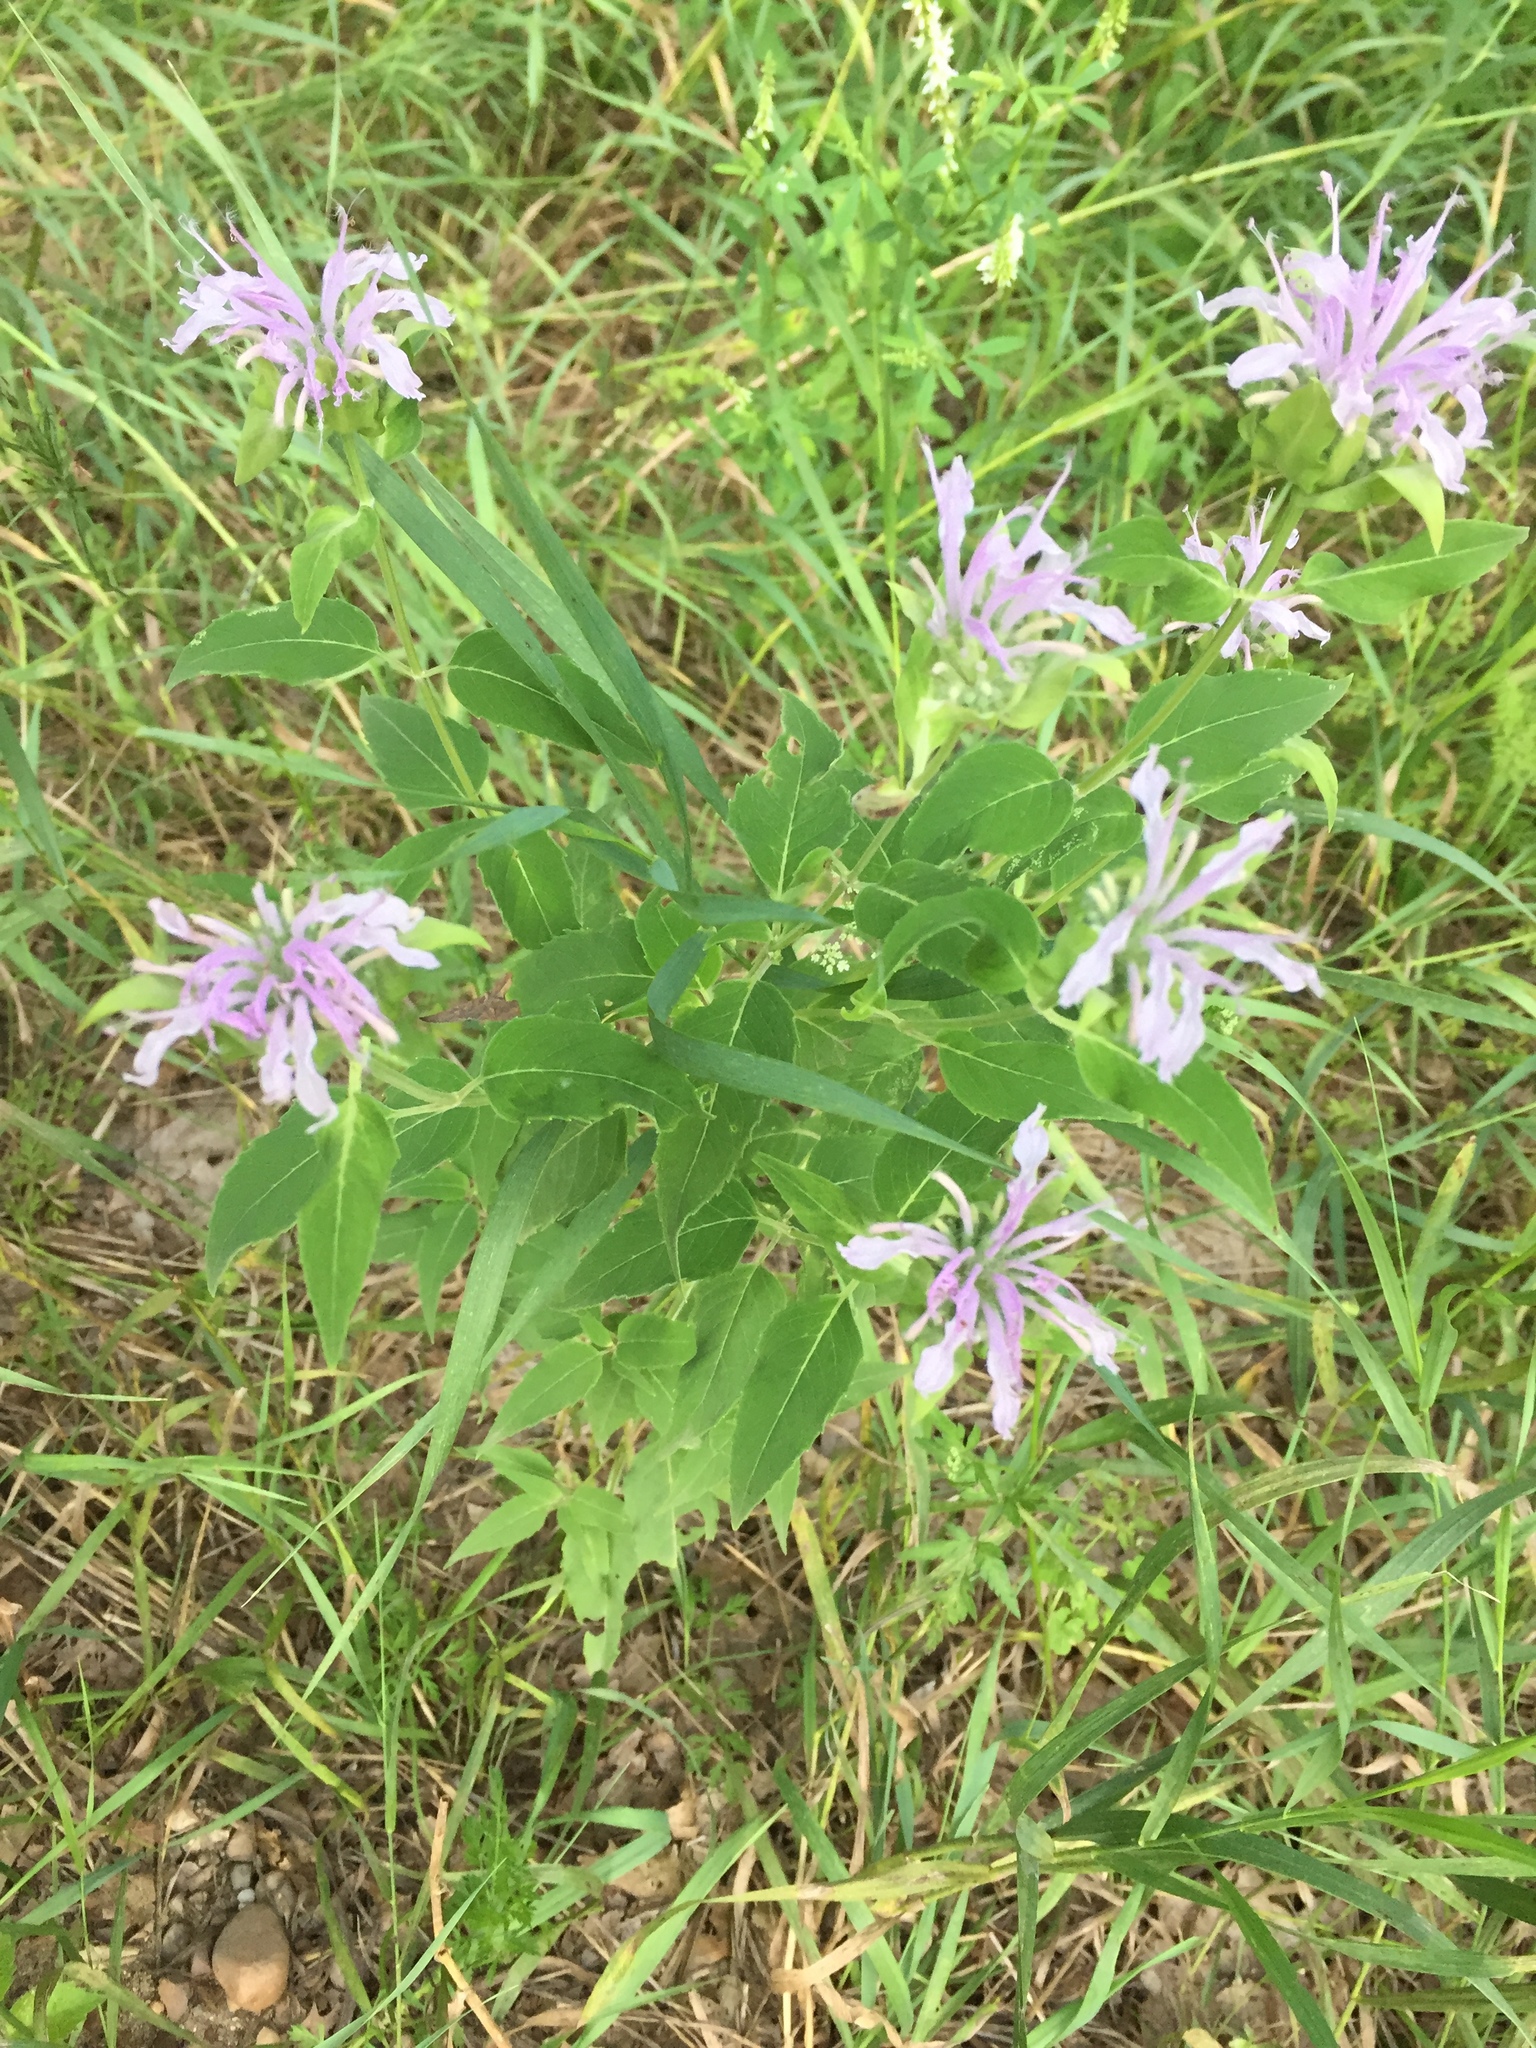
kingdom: Plantae
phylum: Tracheophyta
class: Magnoliopsida
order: Lamiales
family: Lamiaceae
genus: Monarda
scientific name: Monarda fistulosa
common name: Purple beebalm
